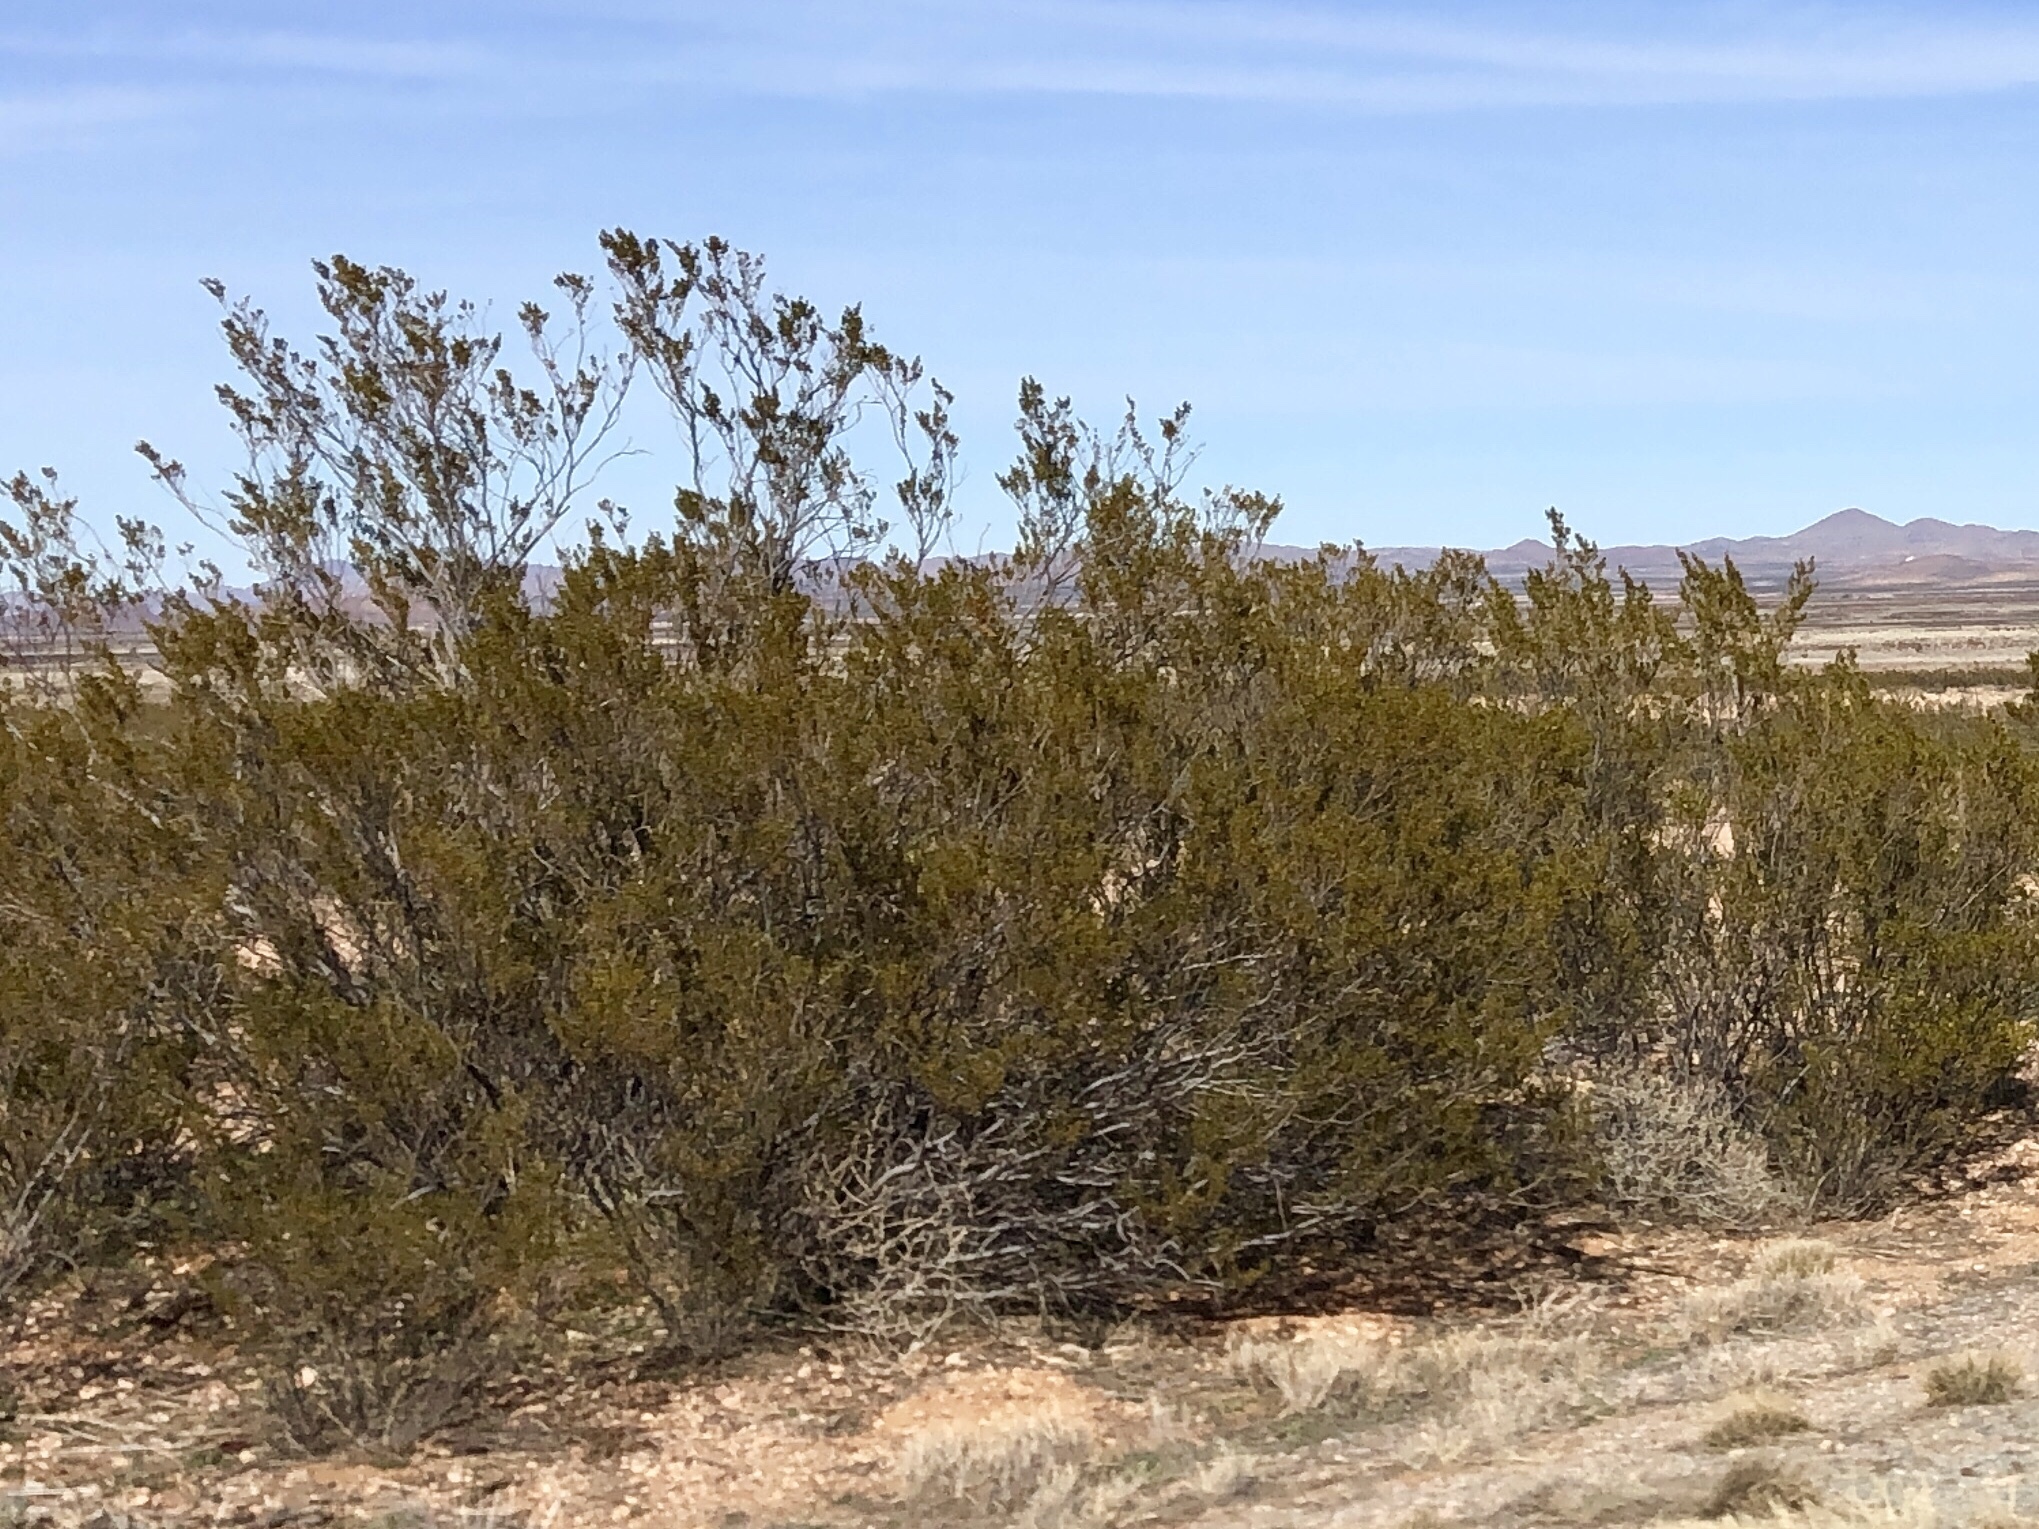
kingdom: Plantae
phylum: Tracheophyta
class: Magnoliopsida
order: Zygophyllales
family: Zygophyllaceae
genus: Larrea
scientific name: Larrea tridentata
